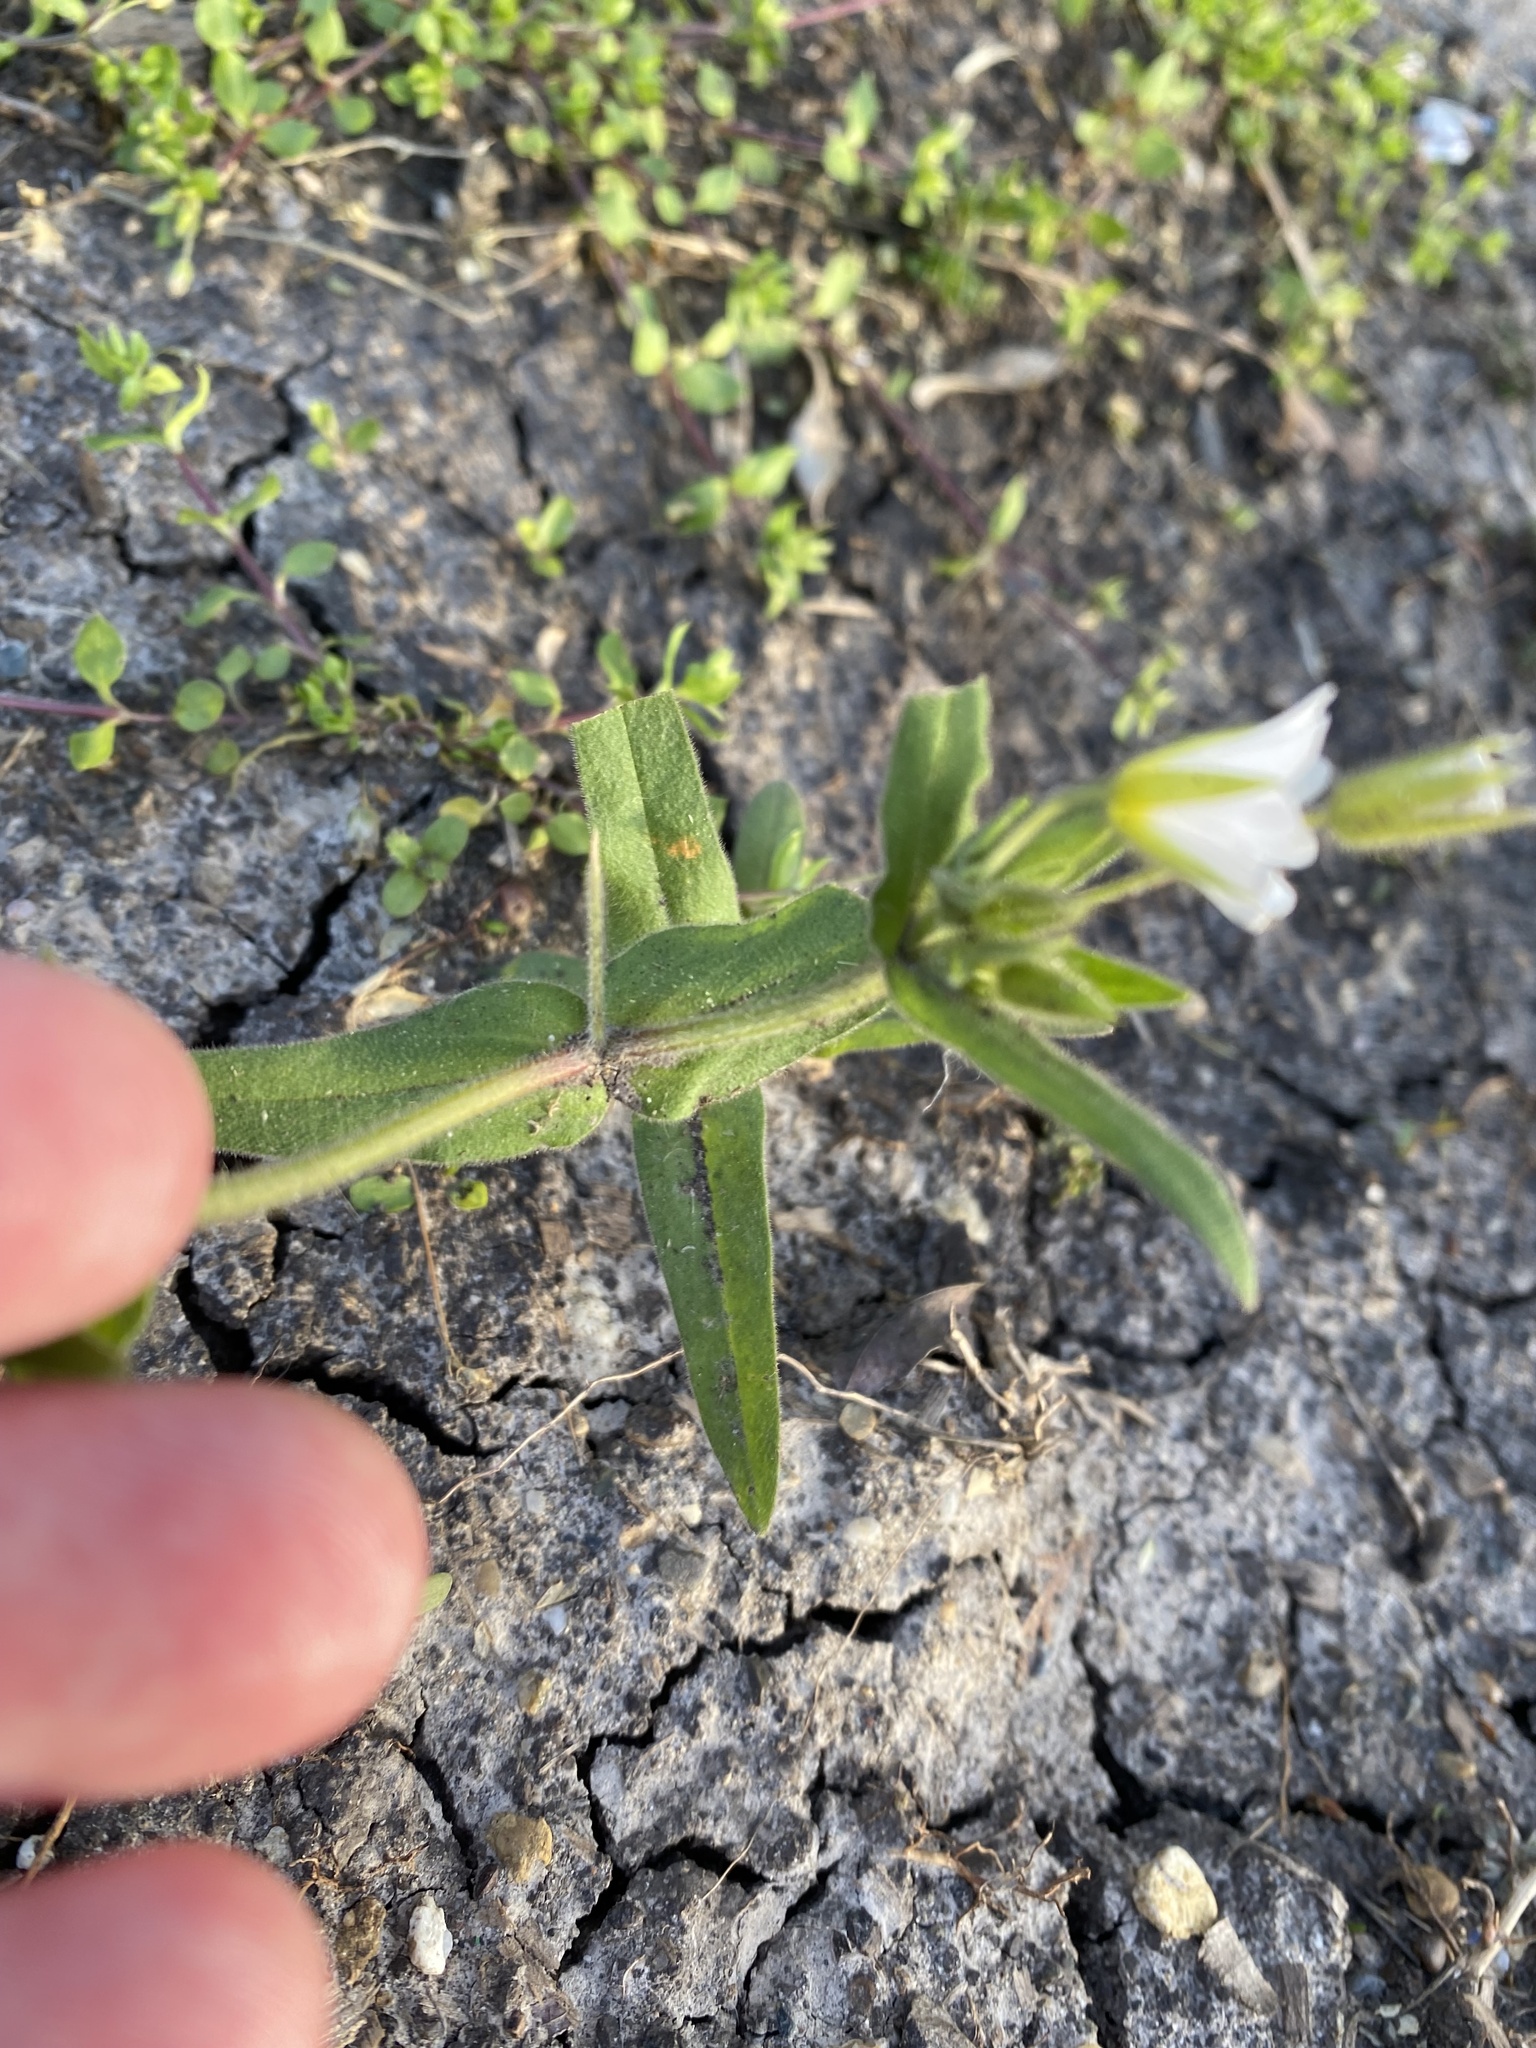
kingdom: Plantae
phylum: Tracheophyta
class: Magnoliopsida
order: Caryophyllales
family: Caryophyllaceae
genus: Cerastium
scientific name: Cerastium nemorale
